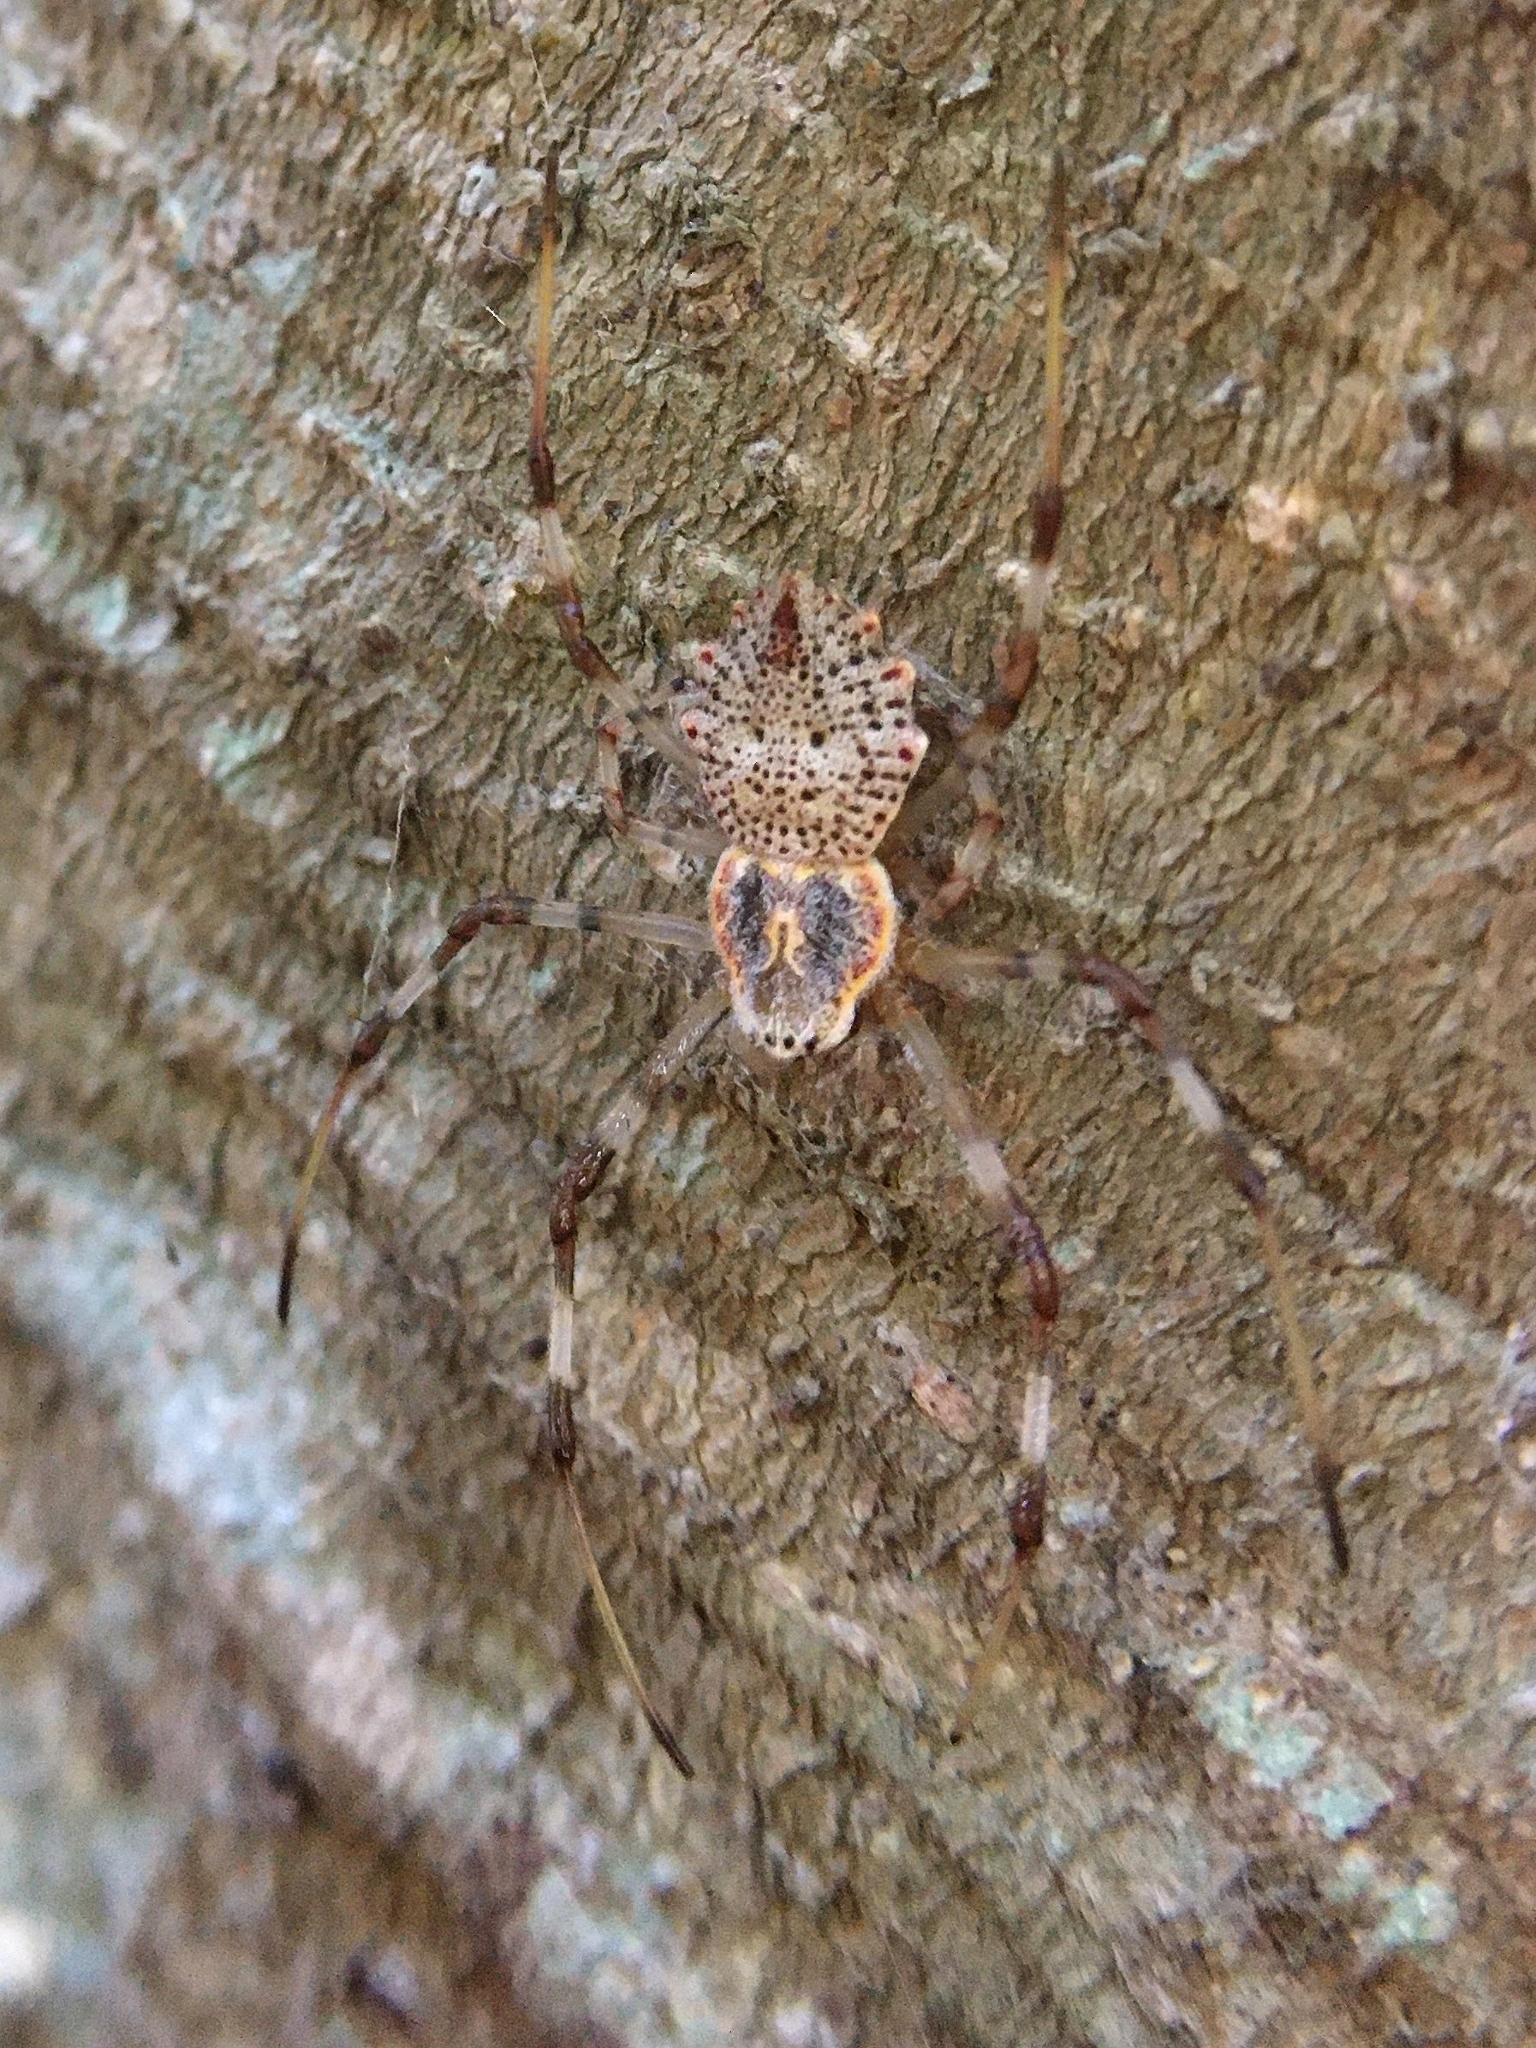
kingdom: Animalia
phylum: Arthropoda
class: Arachnida
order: Araneae
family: Araneidae
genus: Herennia
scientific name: Herennia multipuncta
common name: Spotted coin spider
